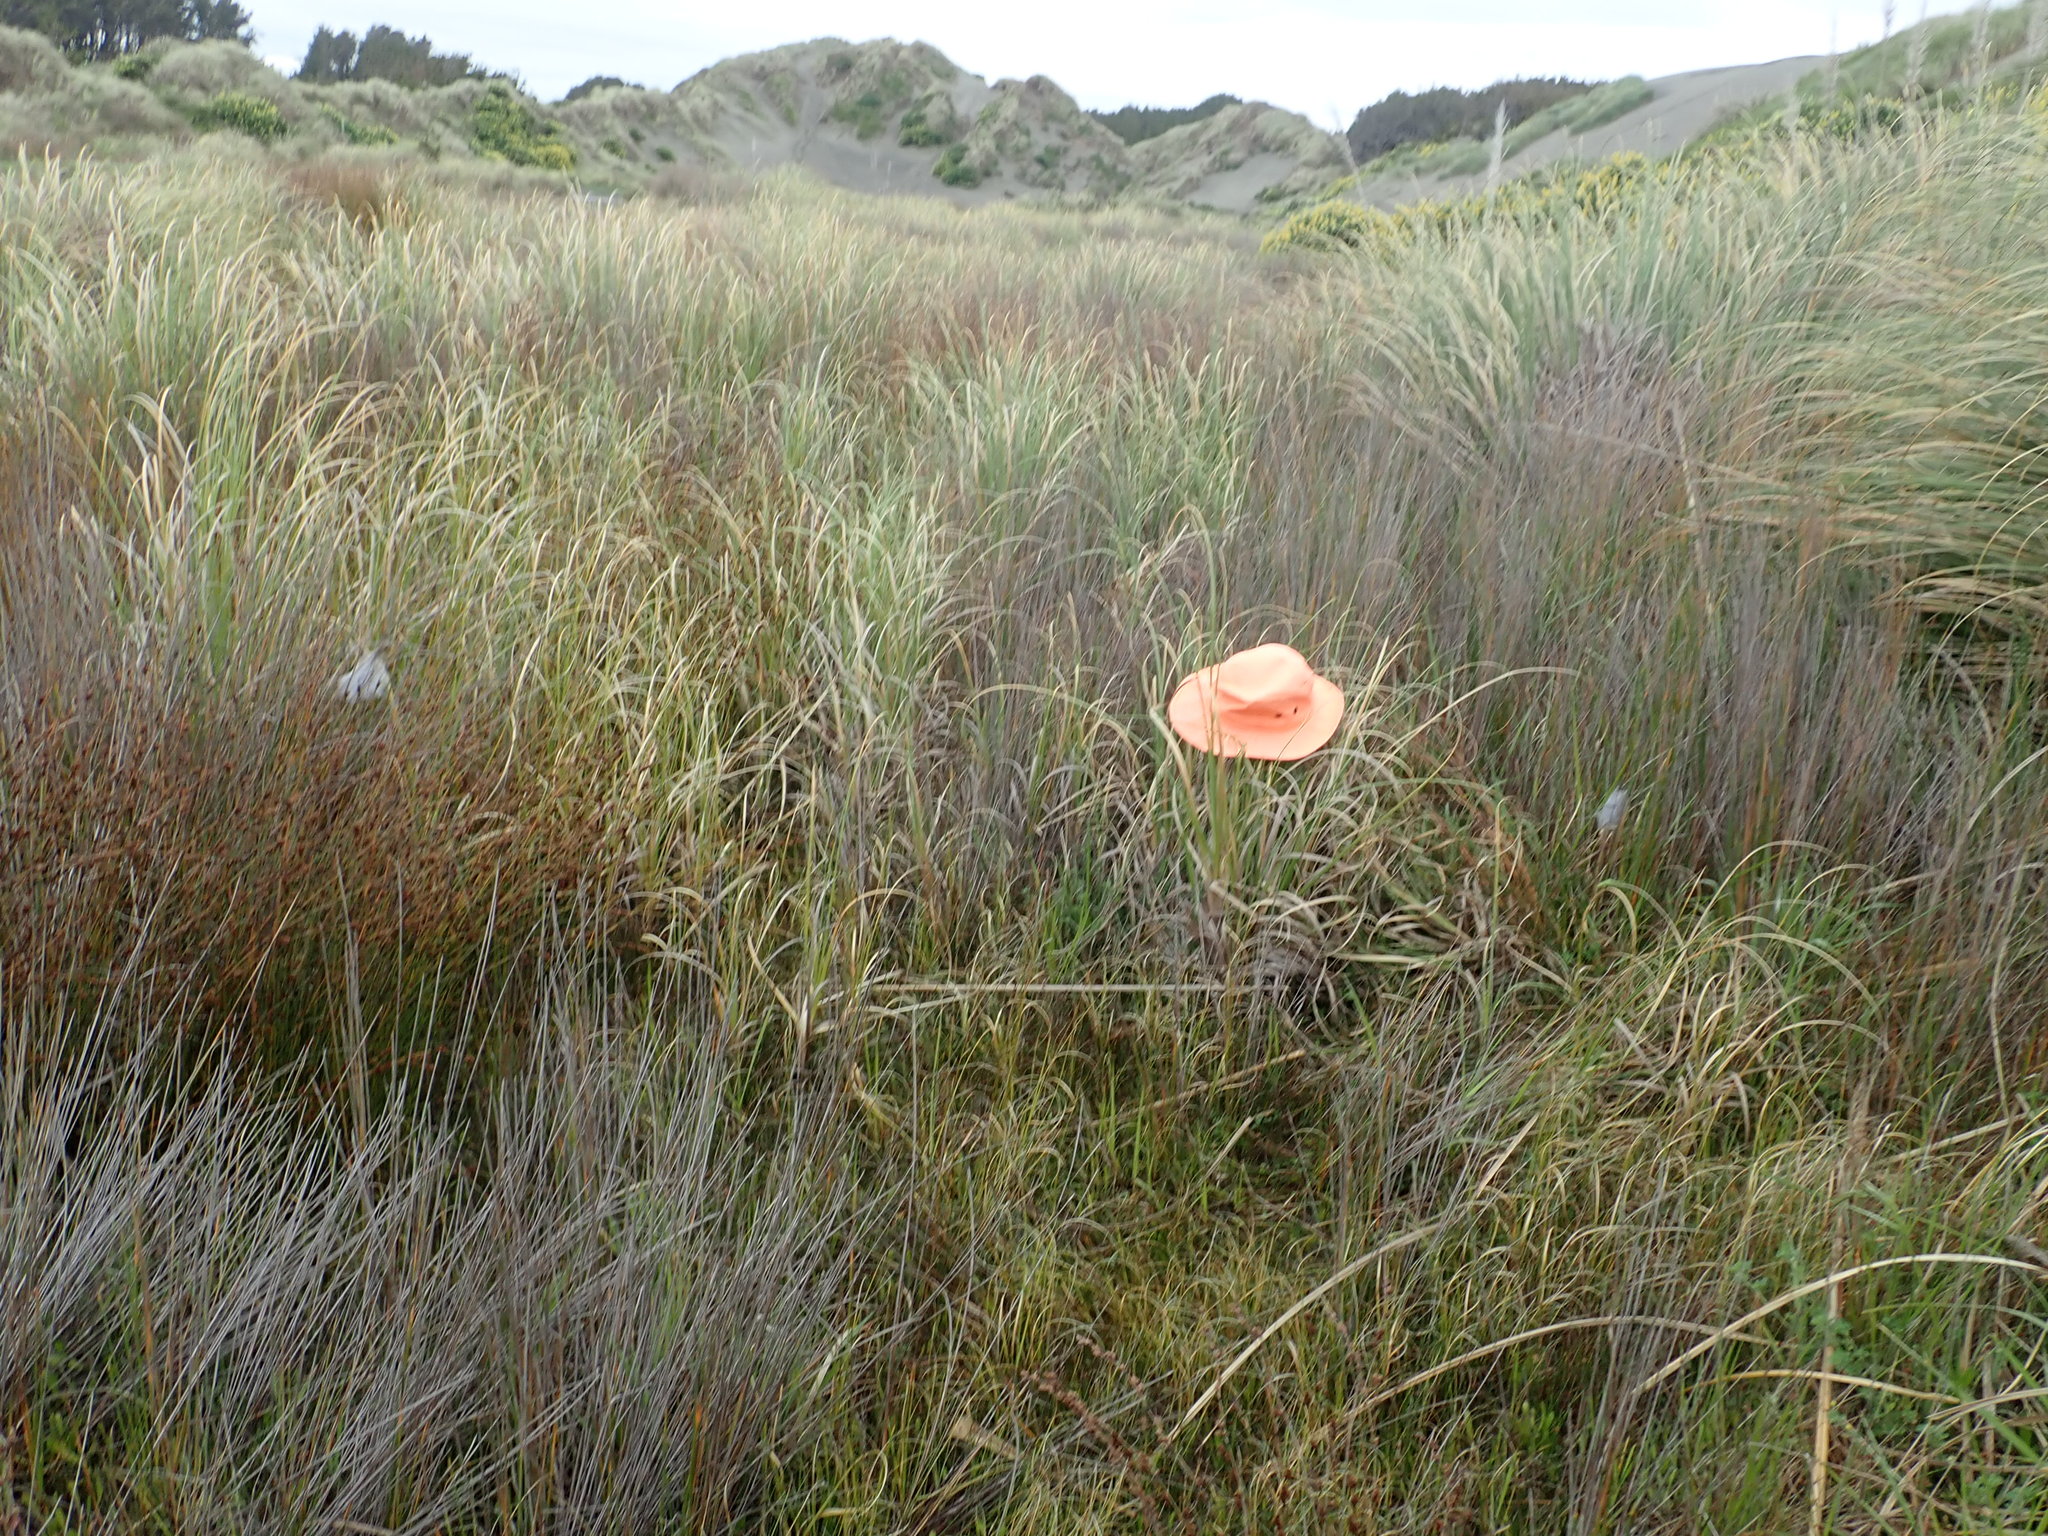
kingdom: Animalia
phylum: Arthropoda
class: Arachnida
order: Araneae
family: Pisauridae
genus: Dolomedes
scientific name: Dolomedes minor
